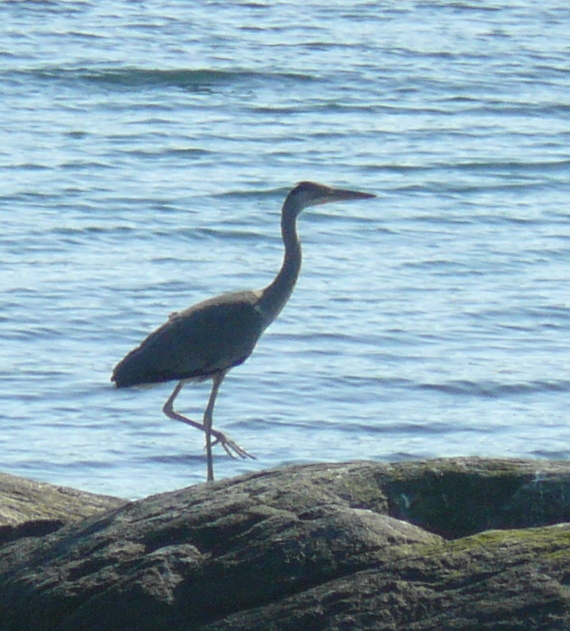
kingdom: Animalia
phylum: Chordata
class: Aves
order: Pelecaniformes
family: Ardeidae
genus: Ardea
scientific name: Ardea cinerea
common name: Grey heron
